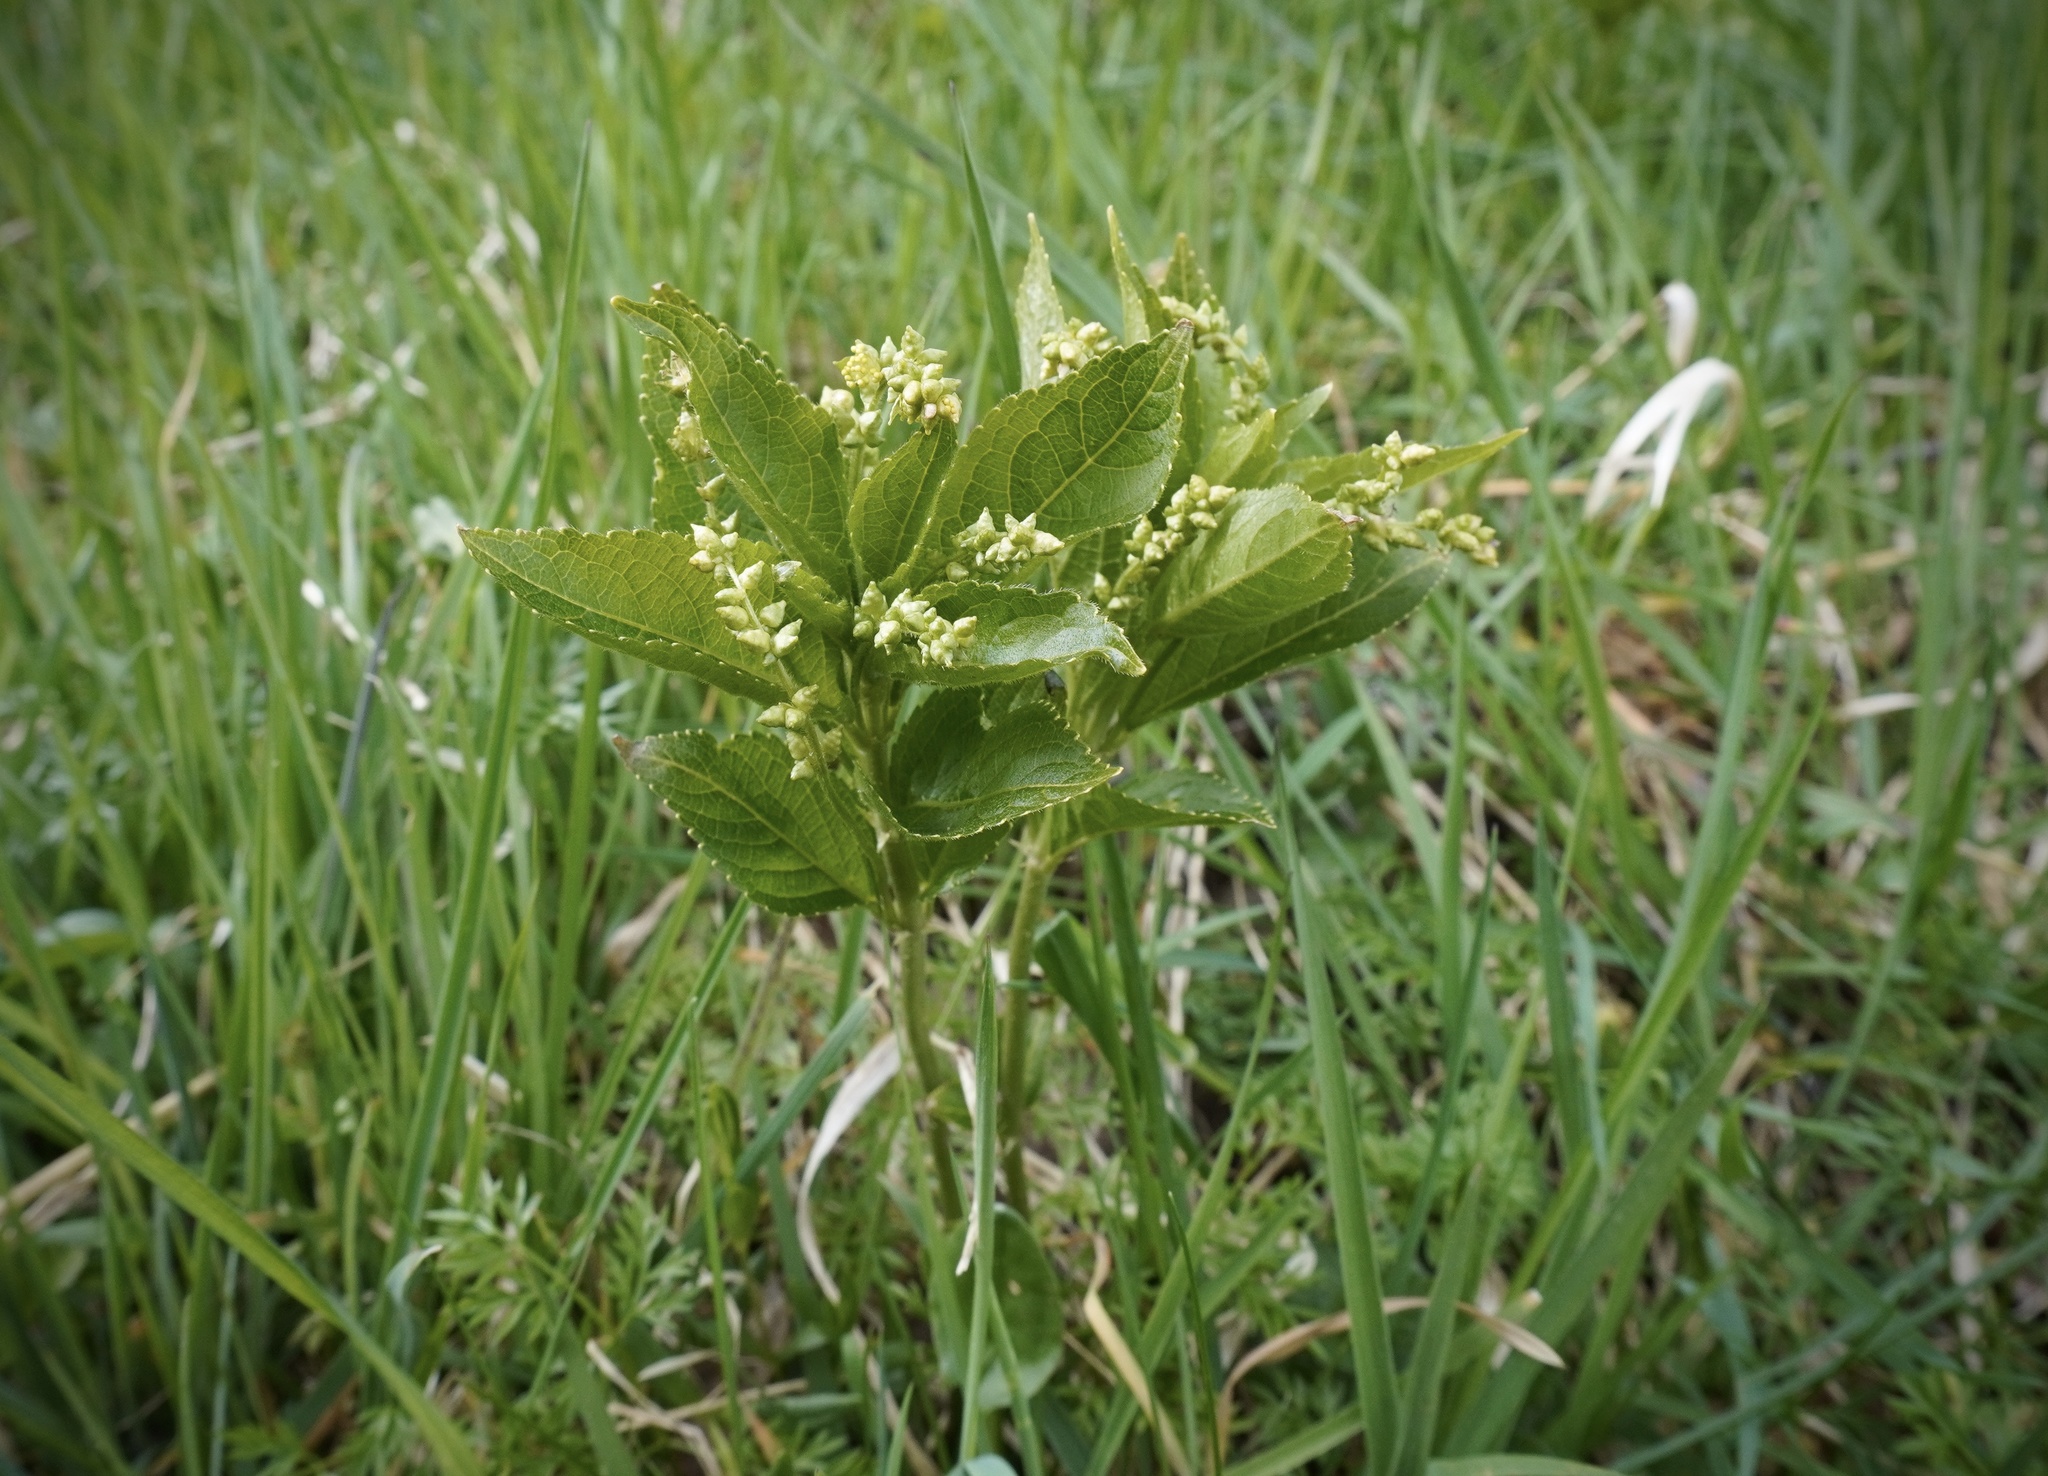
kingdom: Plantae
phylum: Tracheophyta
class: Magnoliopsida
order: Malpighiales
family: Euphorbiaceae
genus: Mercurialis
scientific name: Mercurialis perennis
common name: Dog mercury
